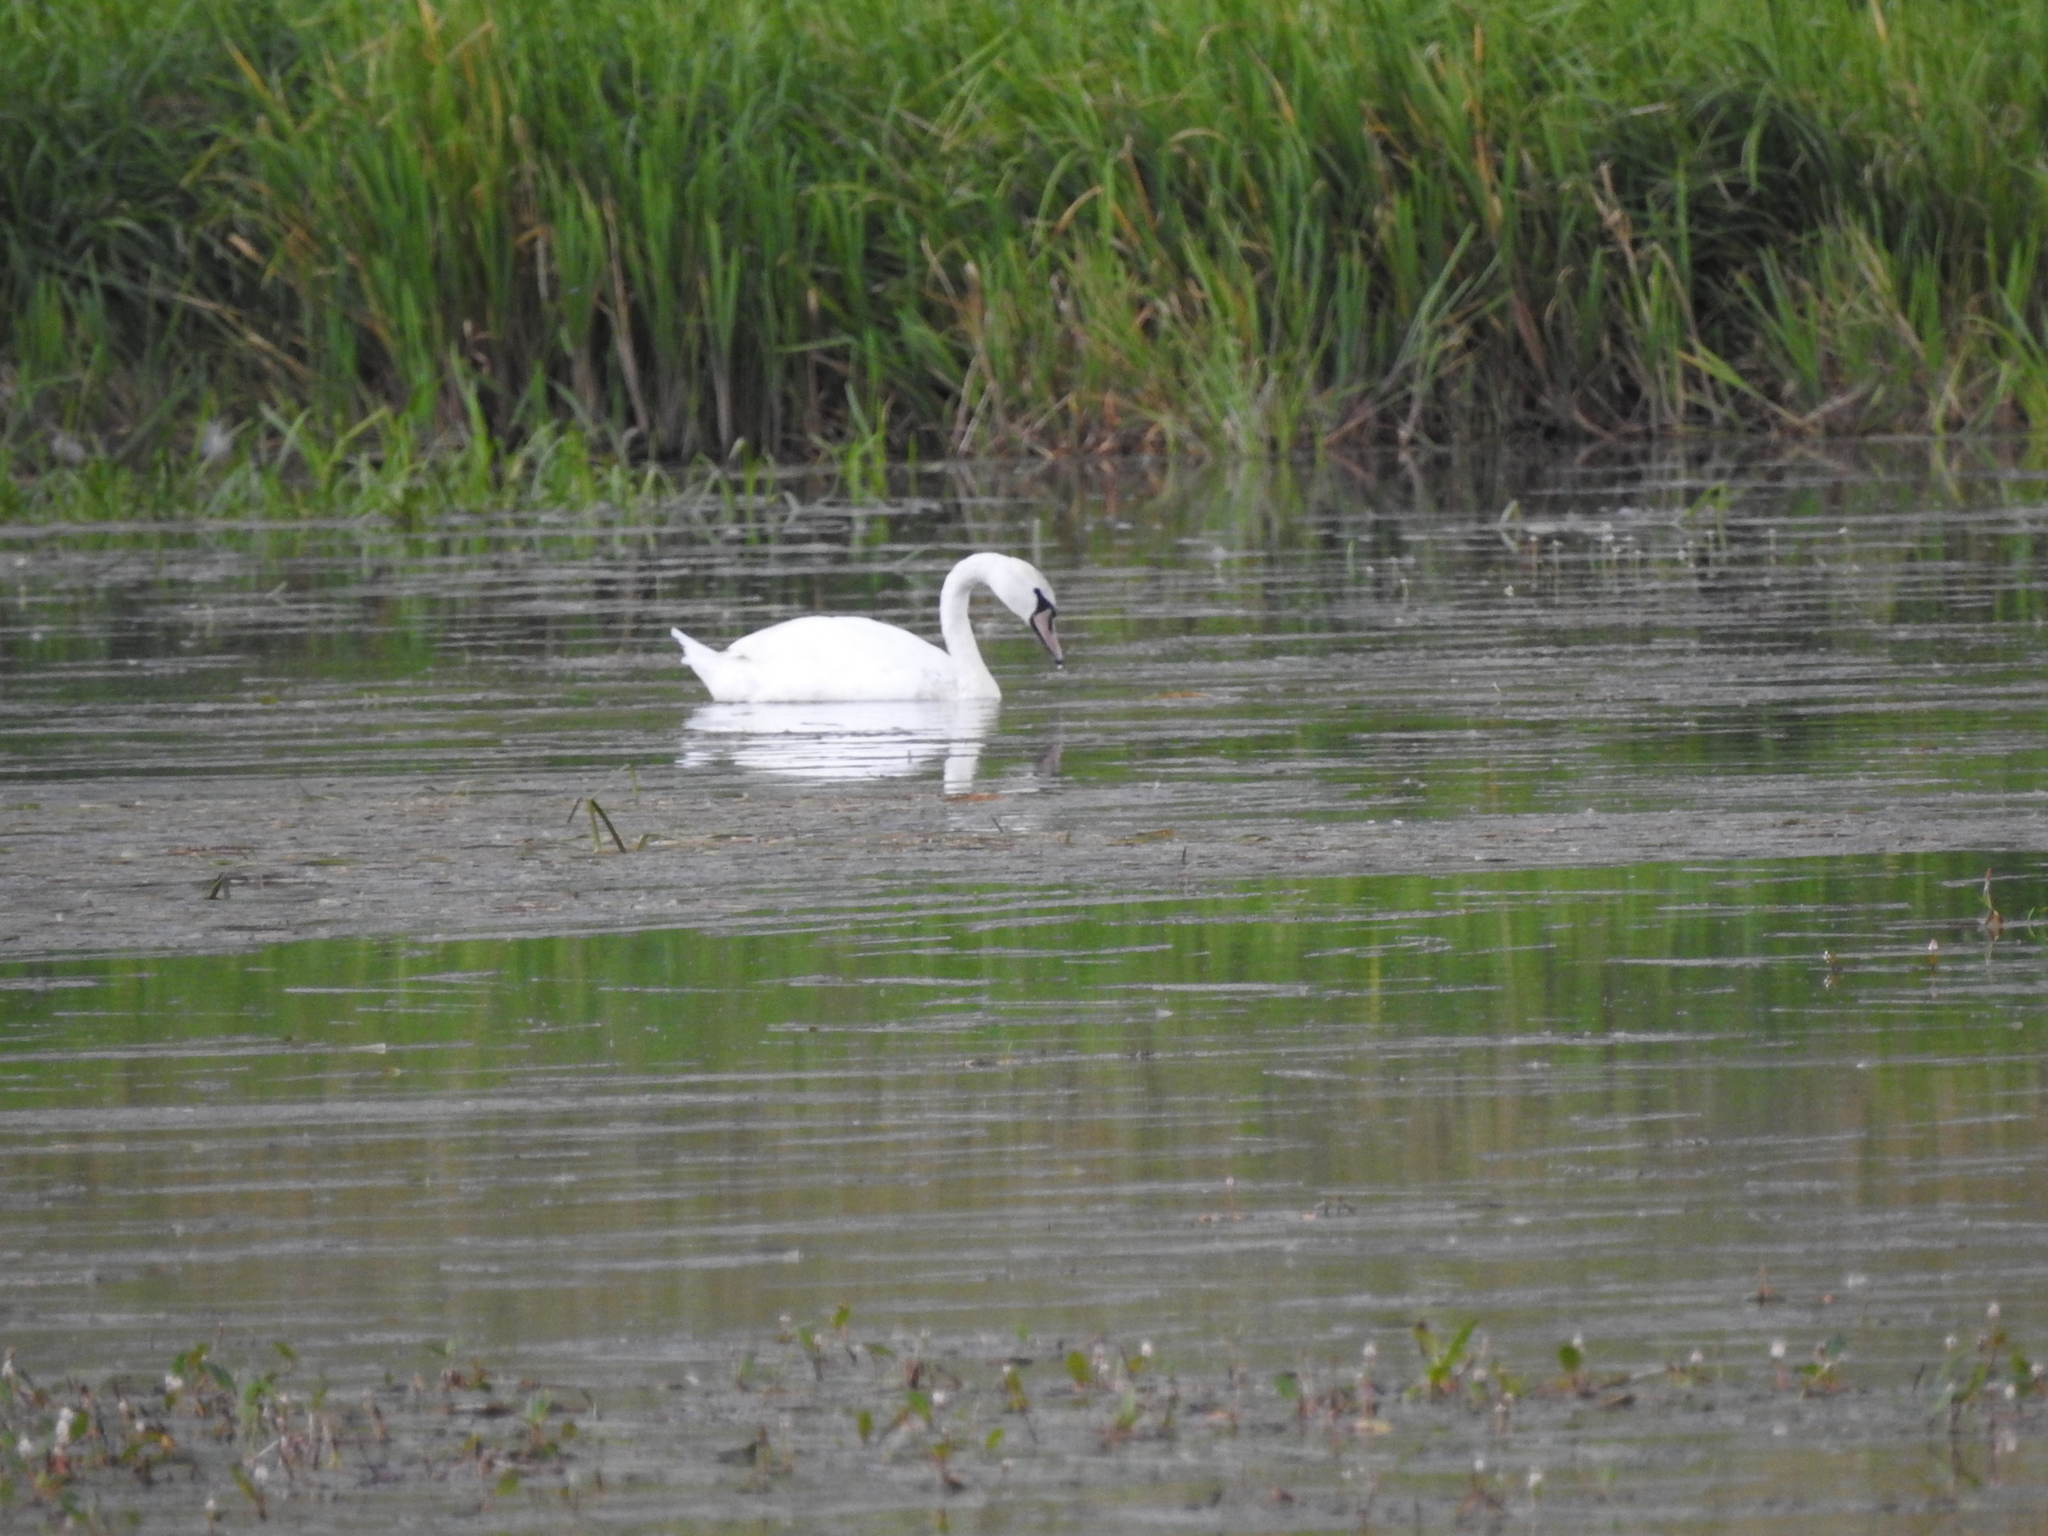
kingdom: Animalia
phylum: Chordata
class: Aves
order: Anseriformes
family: Anatidae
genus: Cygnus
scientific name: Cygnus olor
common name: Mute swan
